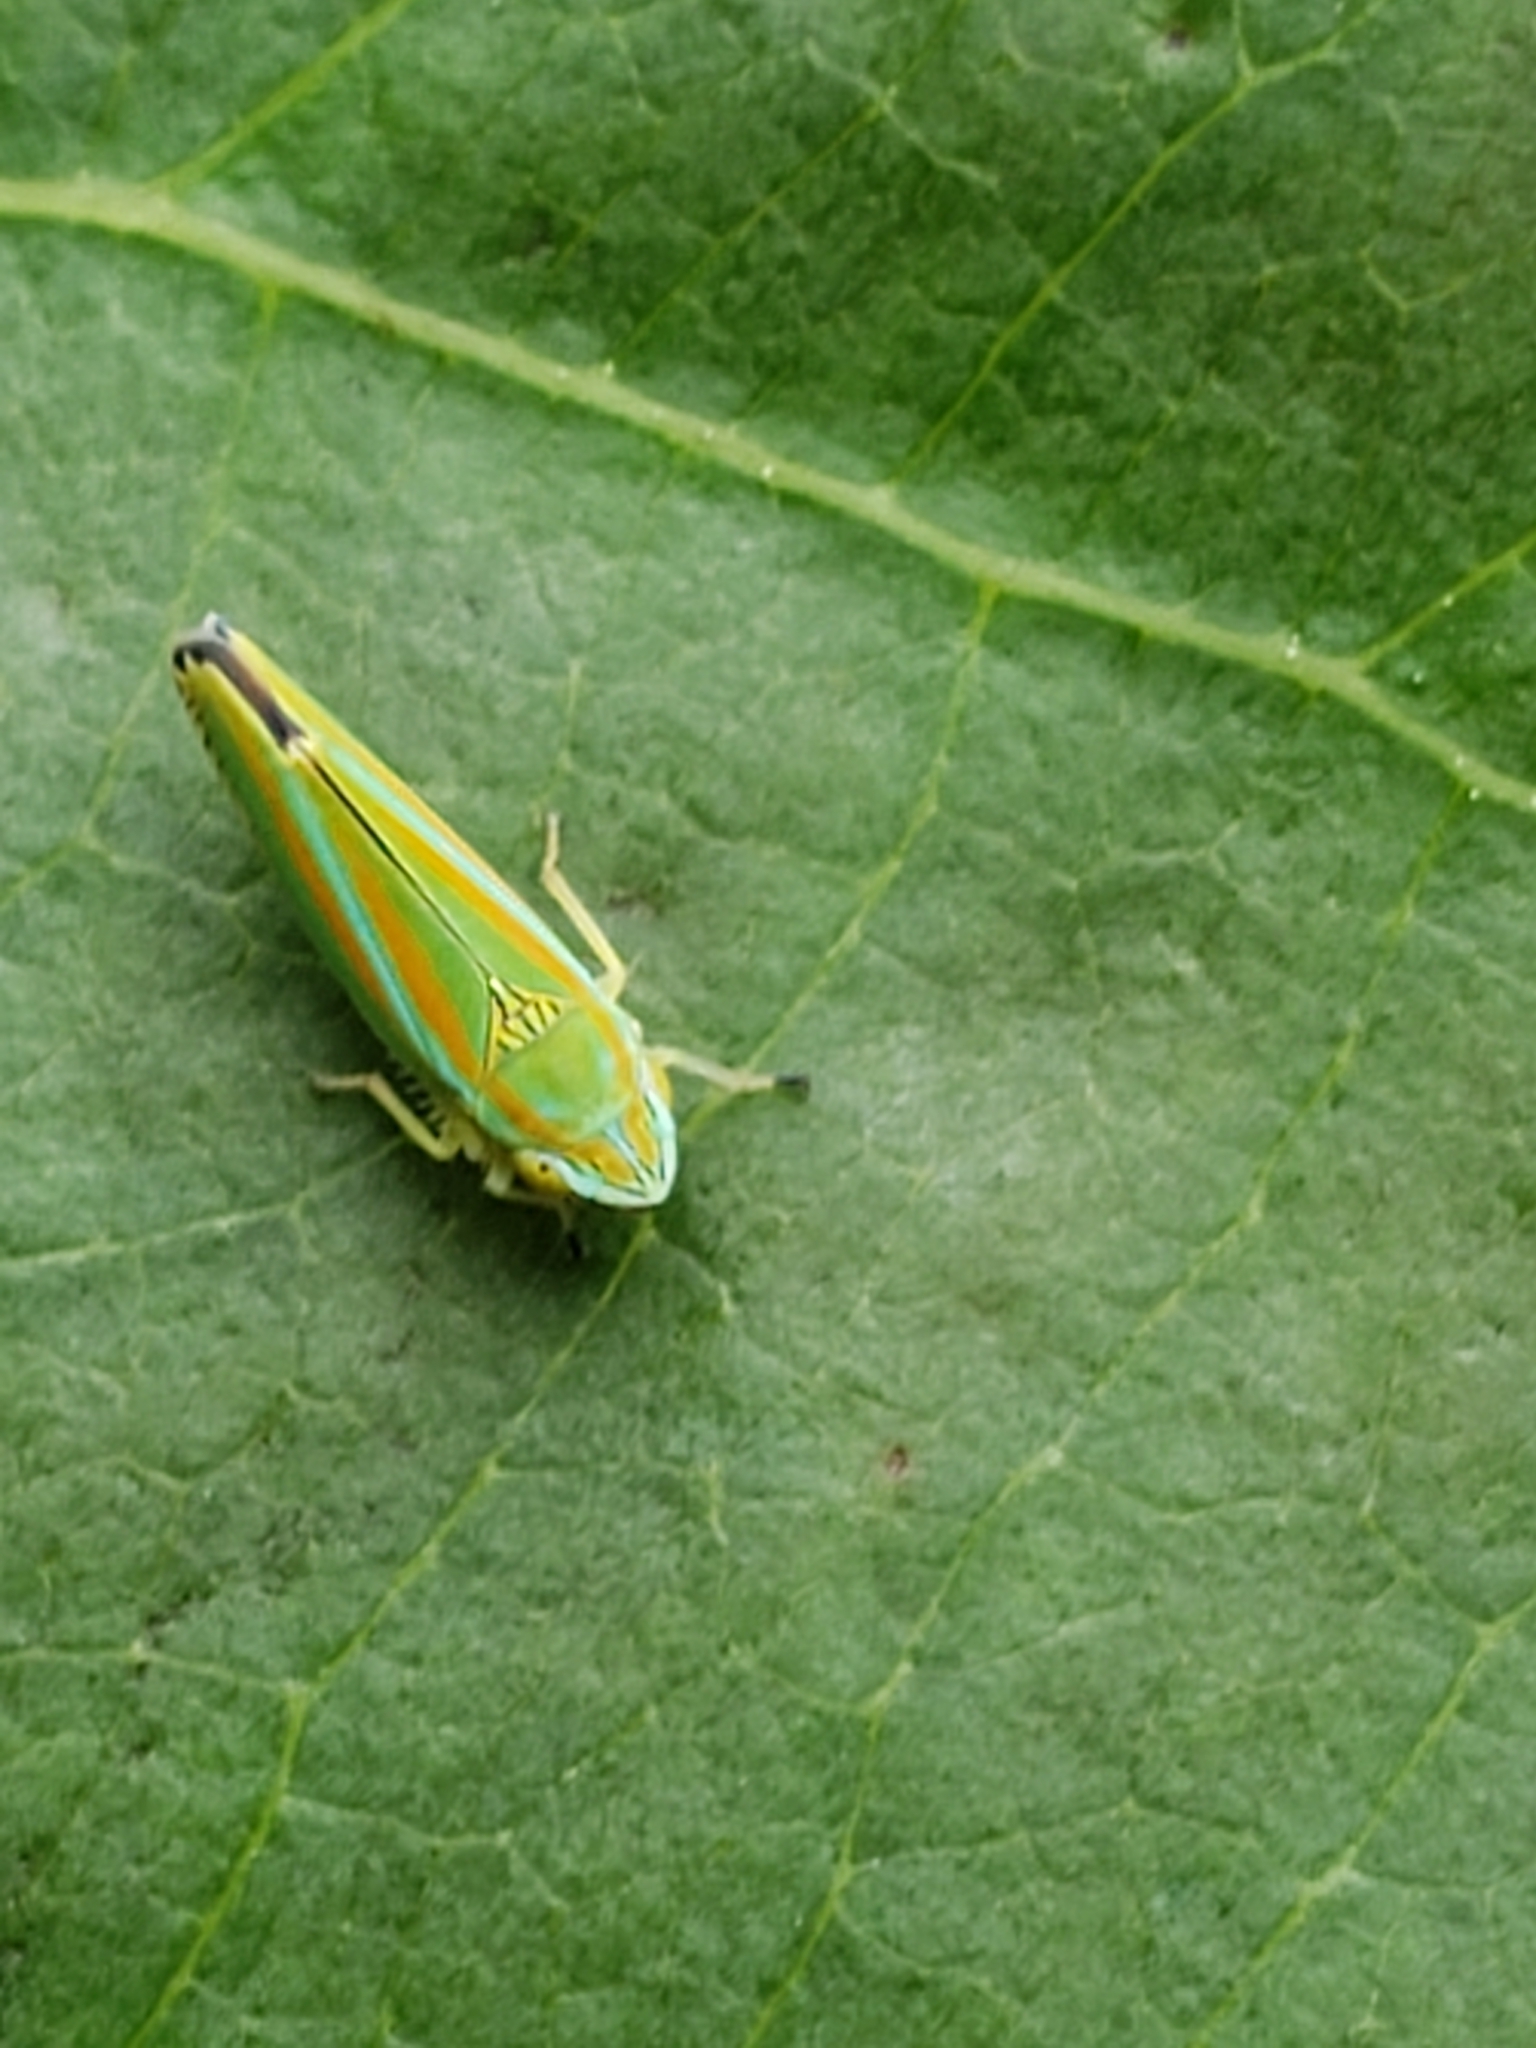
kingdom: Animalia
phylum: Arthropoda
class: Insecta
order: Hemiptera
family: Cicadellidae
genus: Graphocephala
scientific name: Graphocephala versuta
